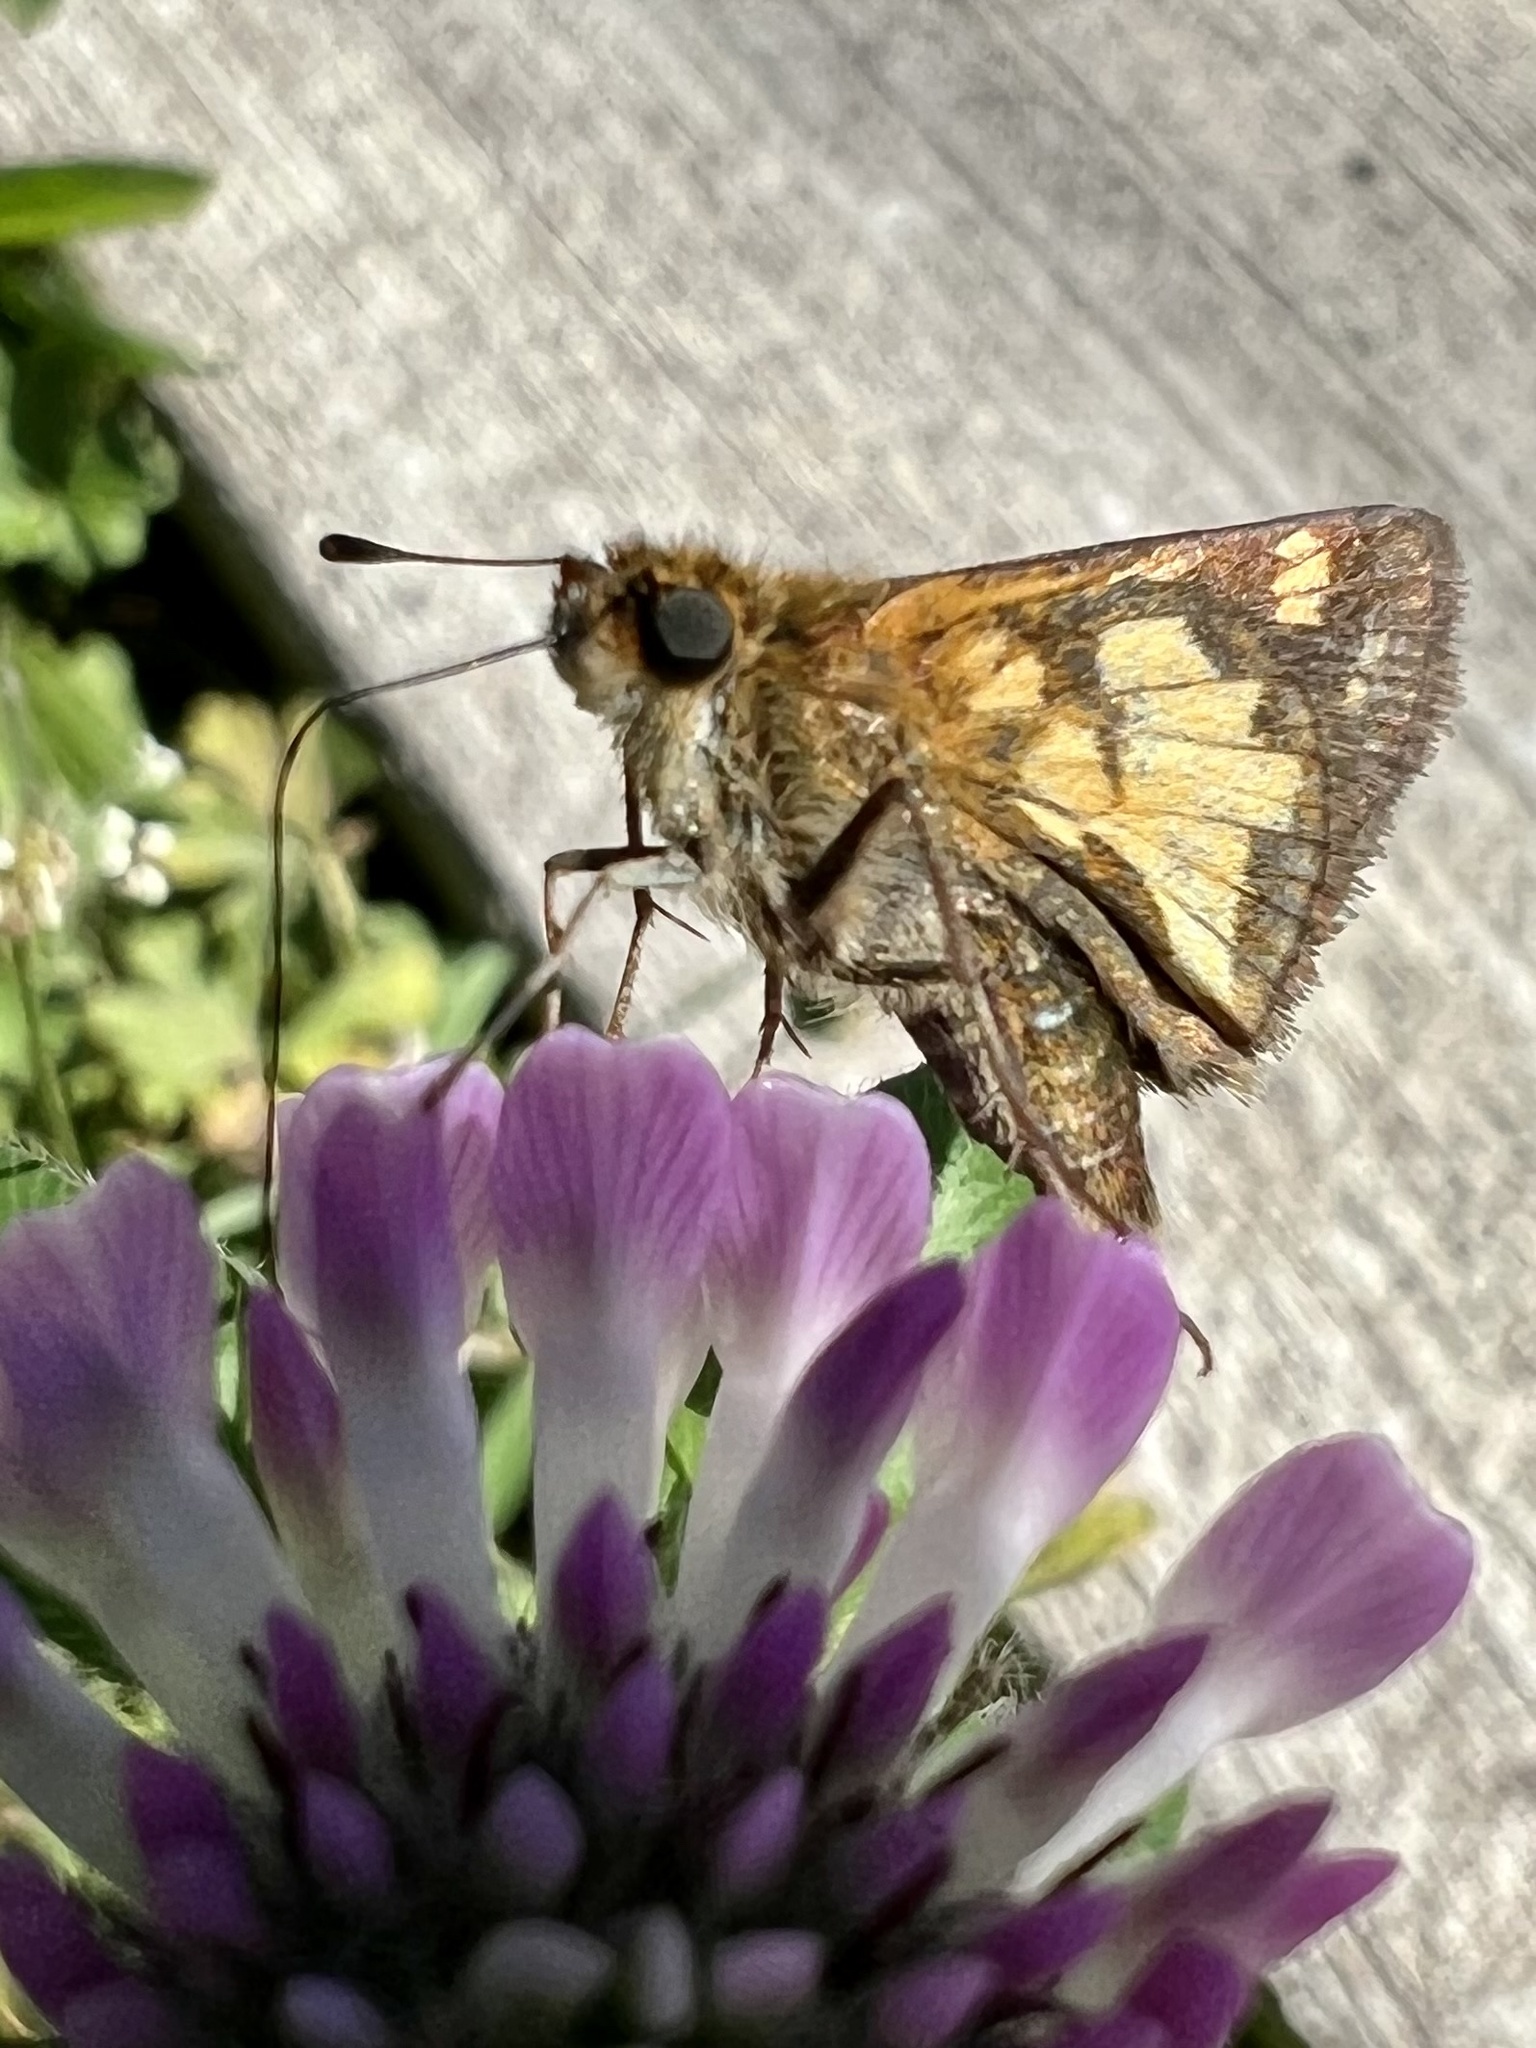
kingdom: Animalia
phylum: Arthropoda
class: Insecta
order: Lepidoptera
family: Hesperiidae
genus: Polites
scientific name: Polites coras
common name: Peck's skipper
